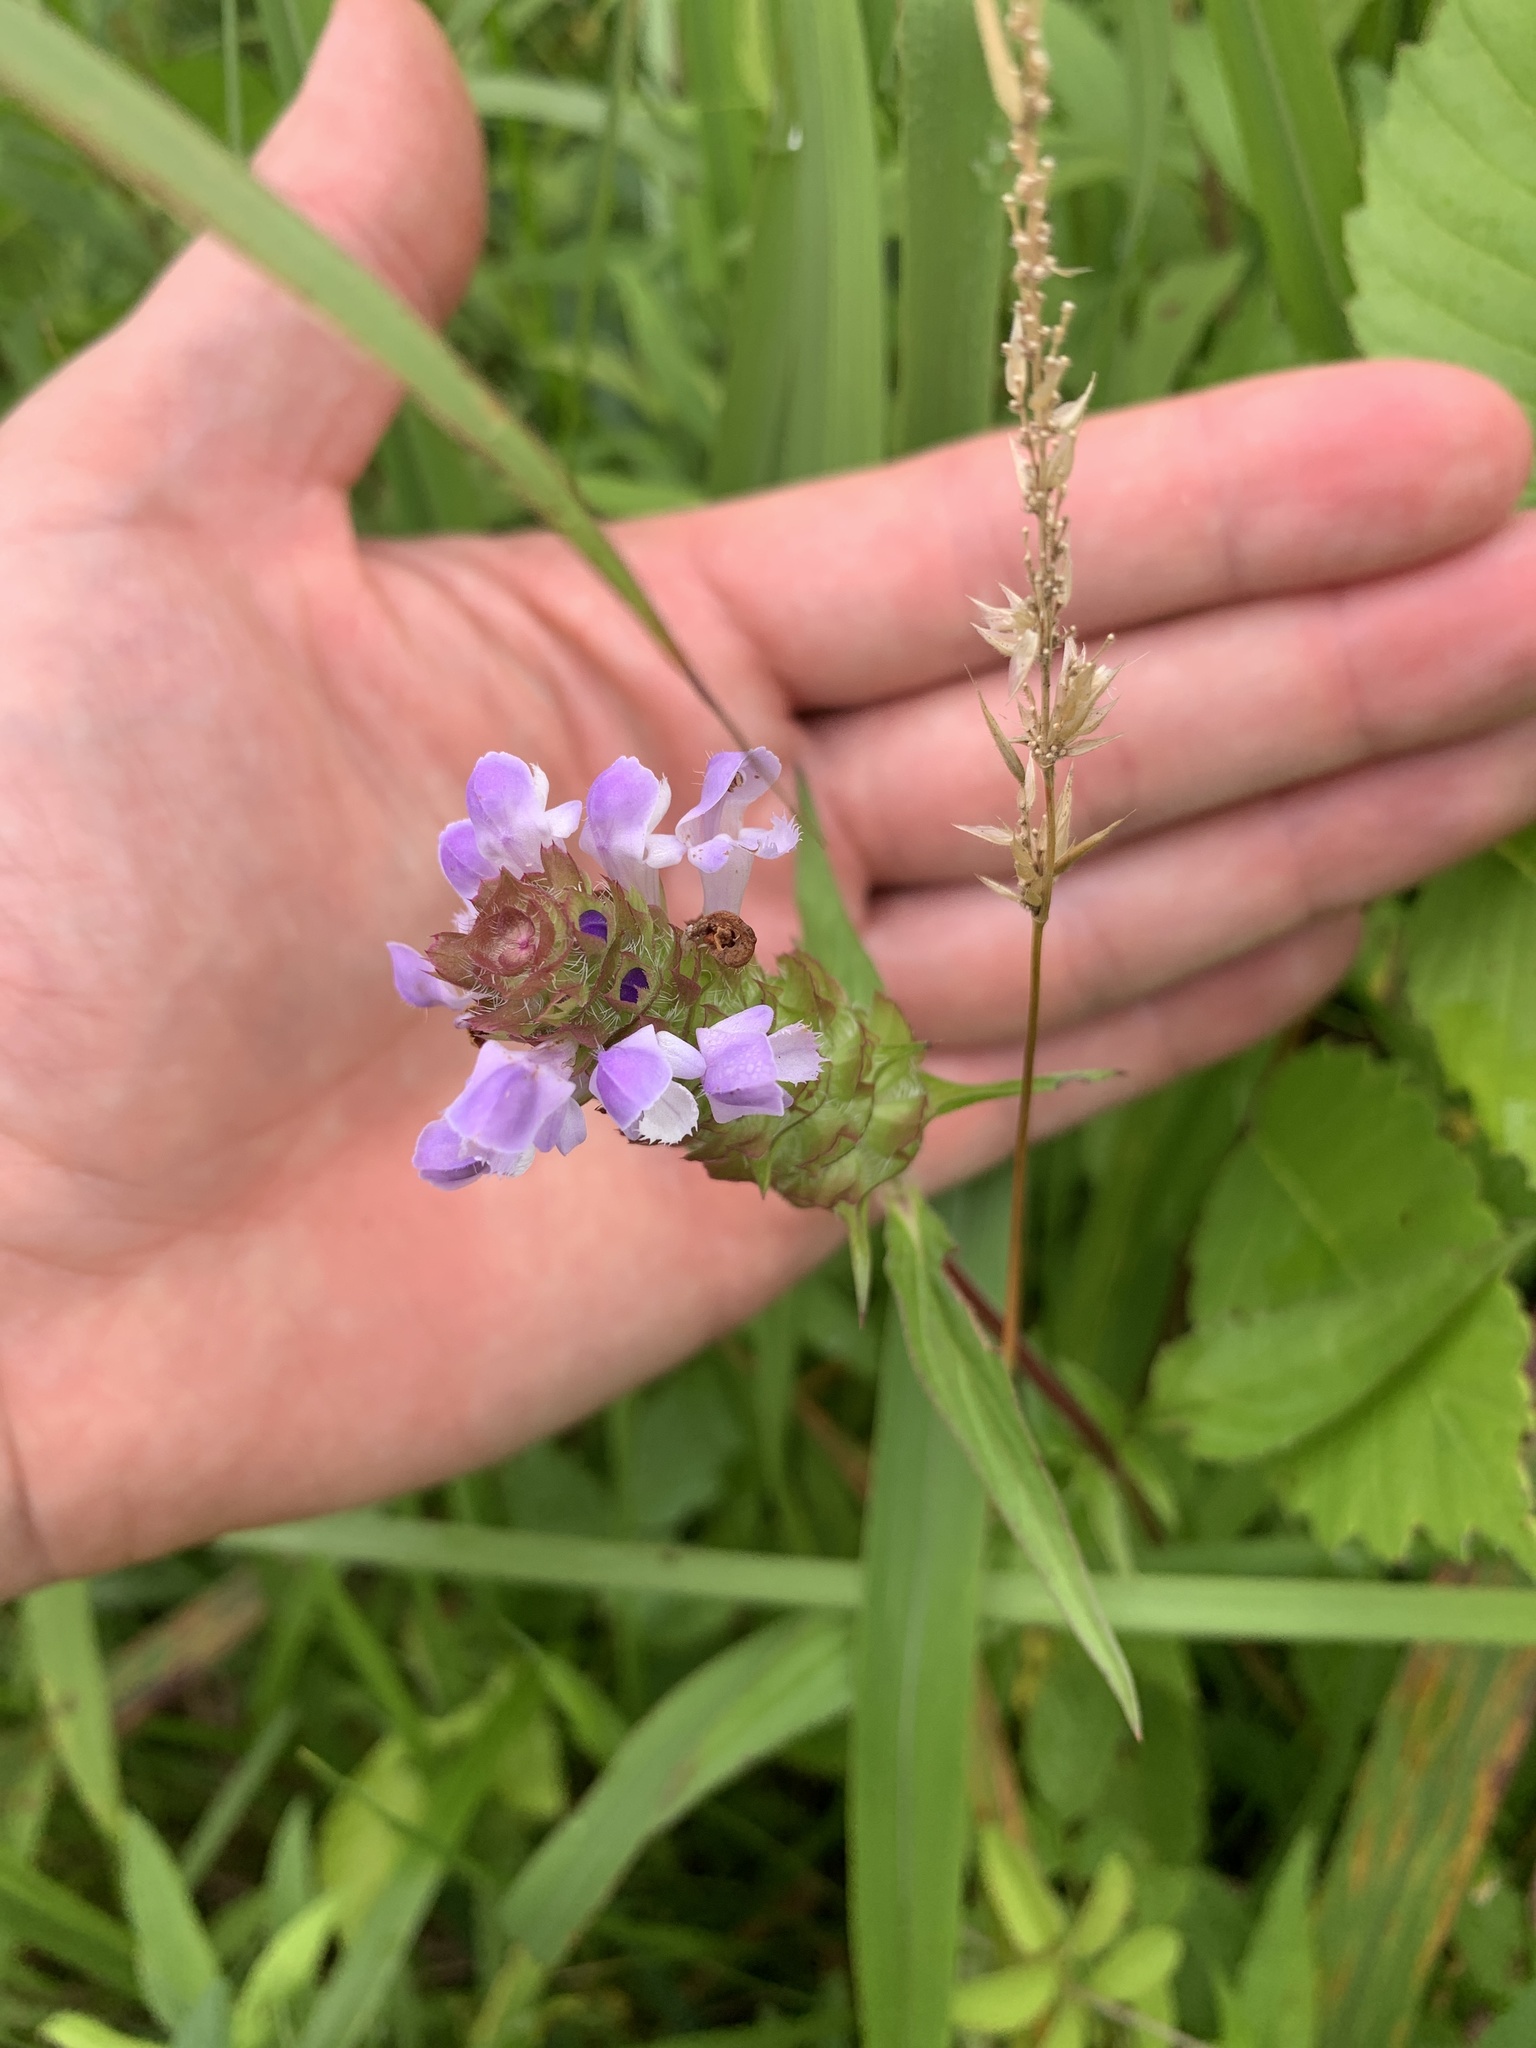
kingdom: Plantae
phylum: Tracheophyta
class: Magnoliopsida
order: Lamiales
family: Lamiaceae
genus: Prunella
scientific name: Prunella vulgaris
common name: Heal-all
